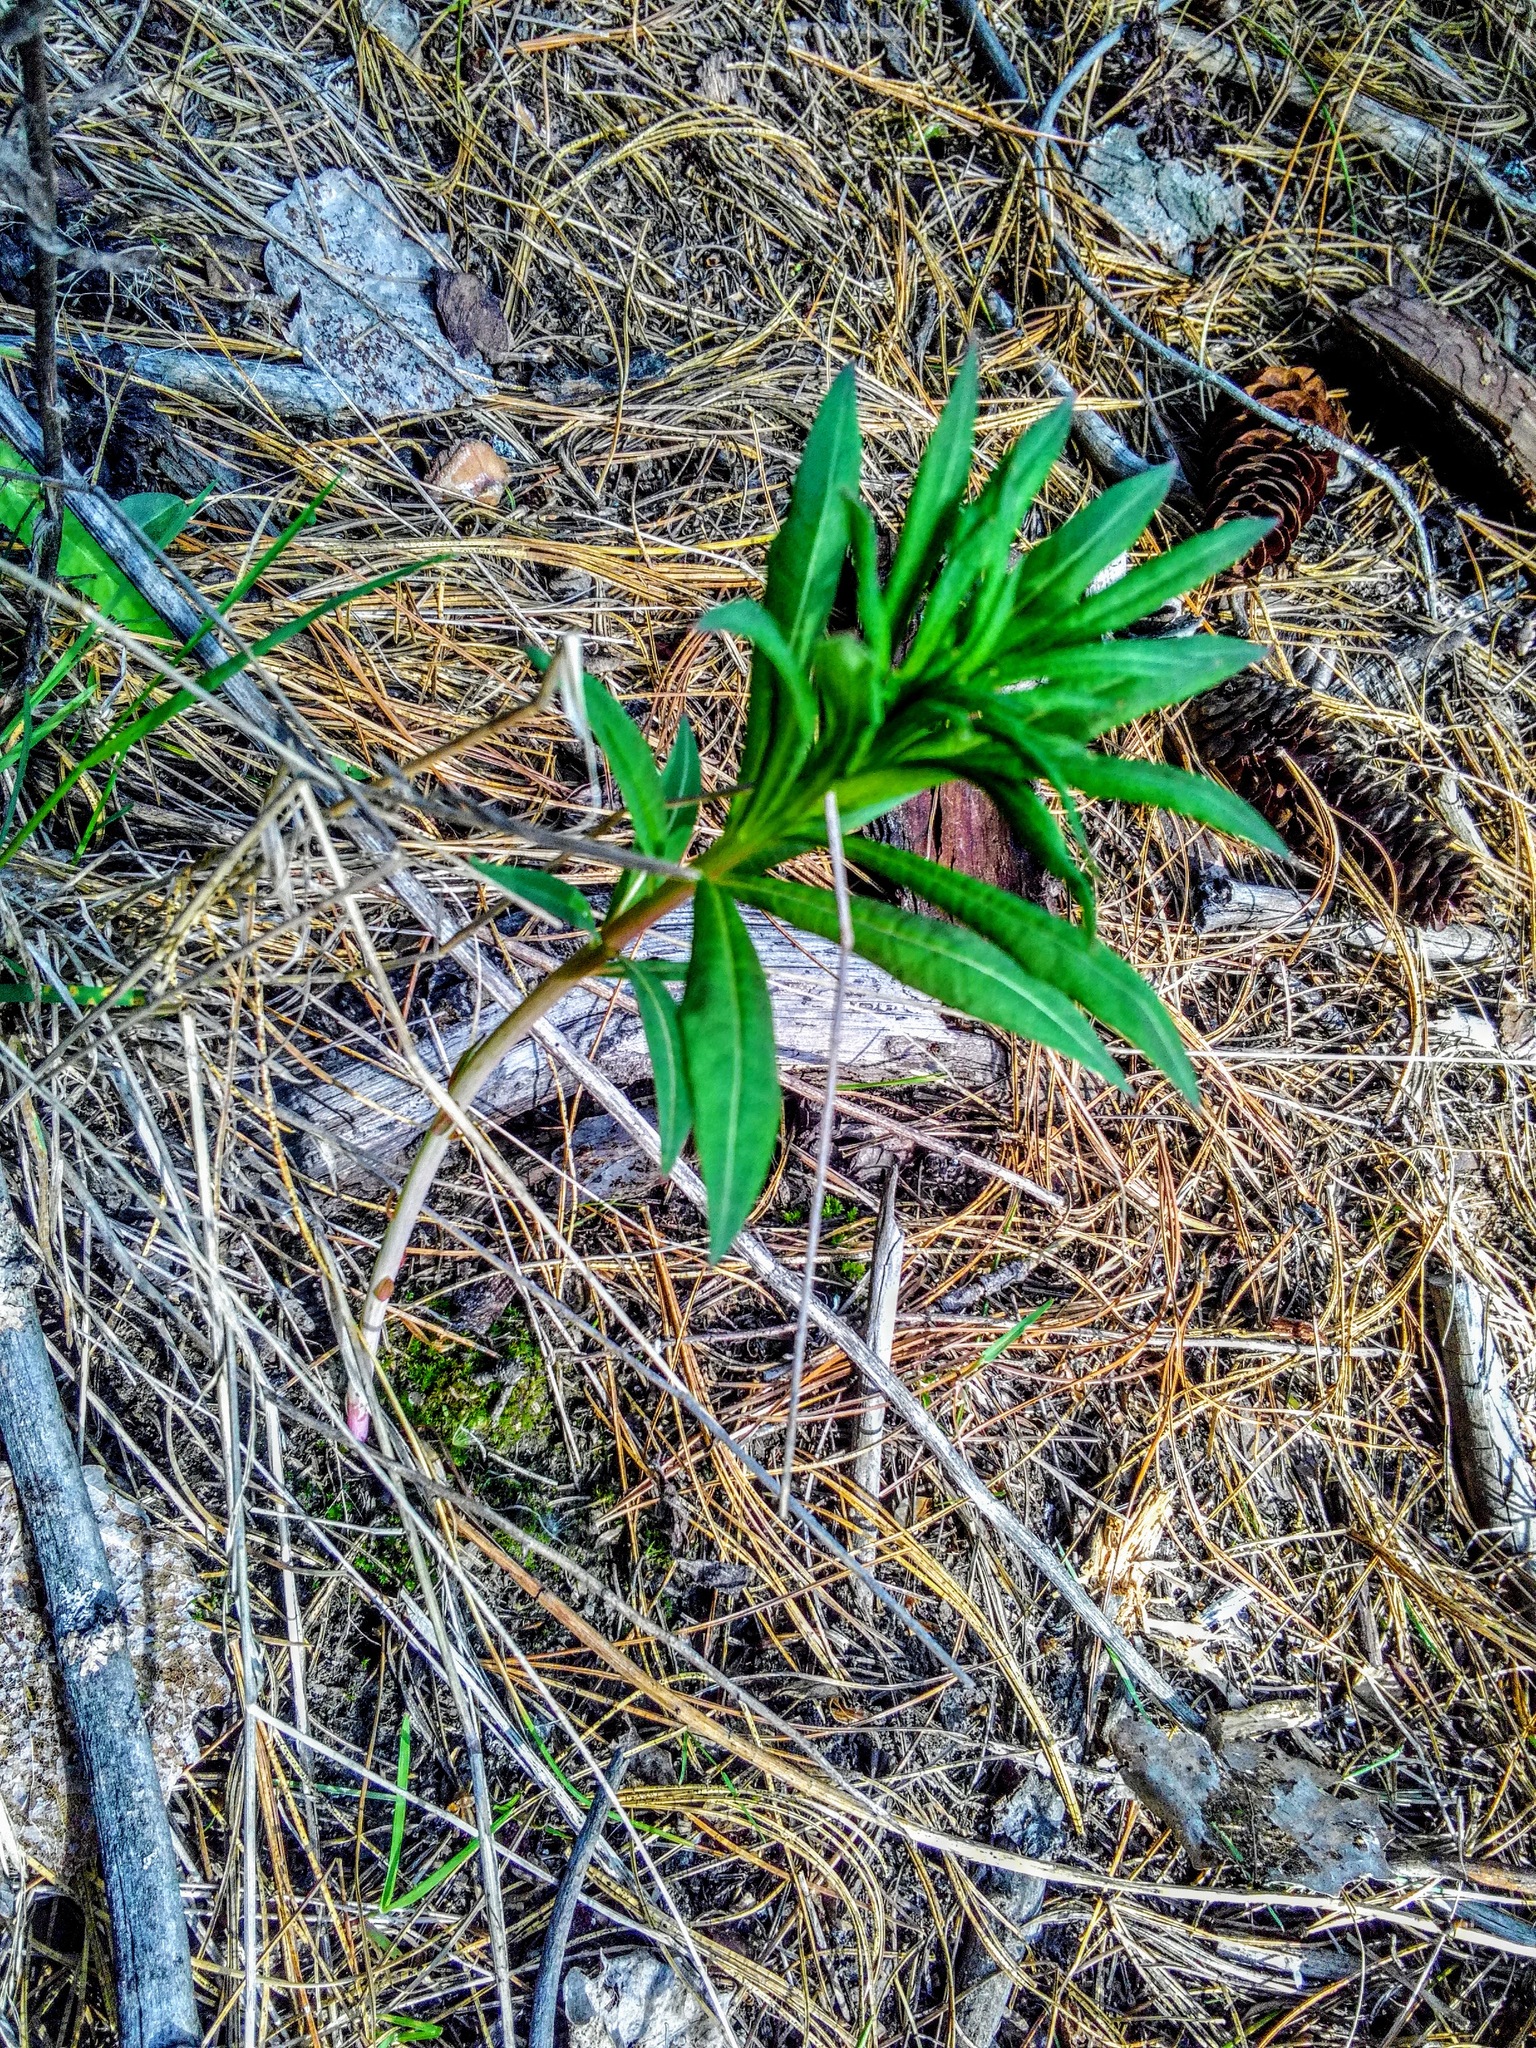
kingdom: Plantae
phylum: Tracheophyta
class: Magnoliopsida
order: Myrtales
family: Onagraceae
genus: Chamaenerion
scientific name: Chamaenerion angustifolium
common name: Fireweed
